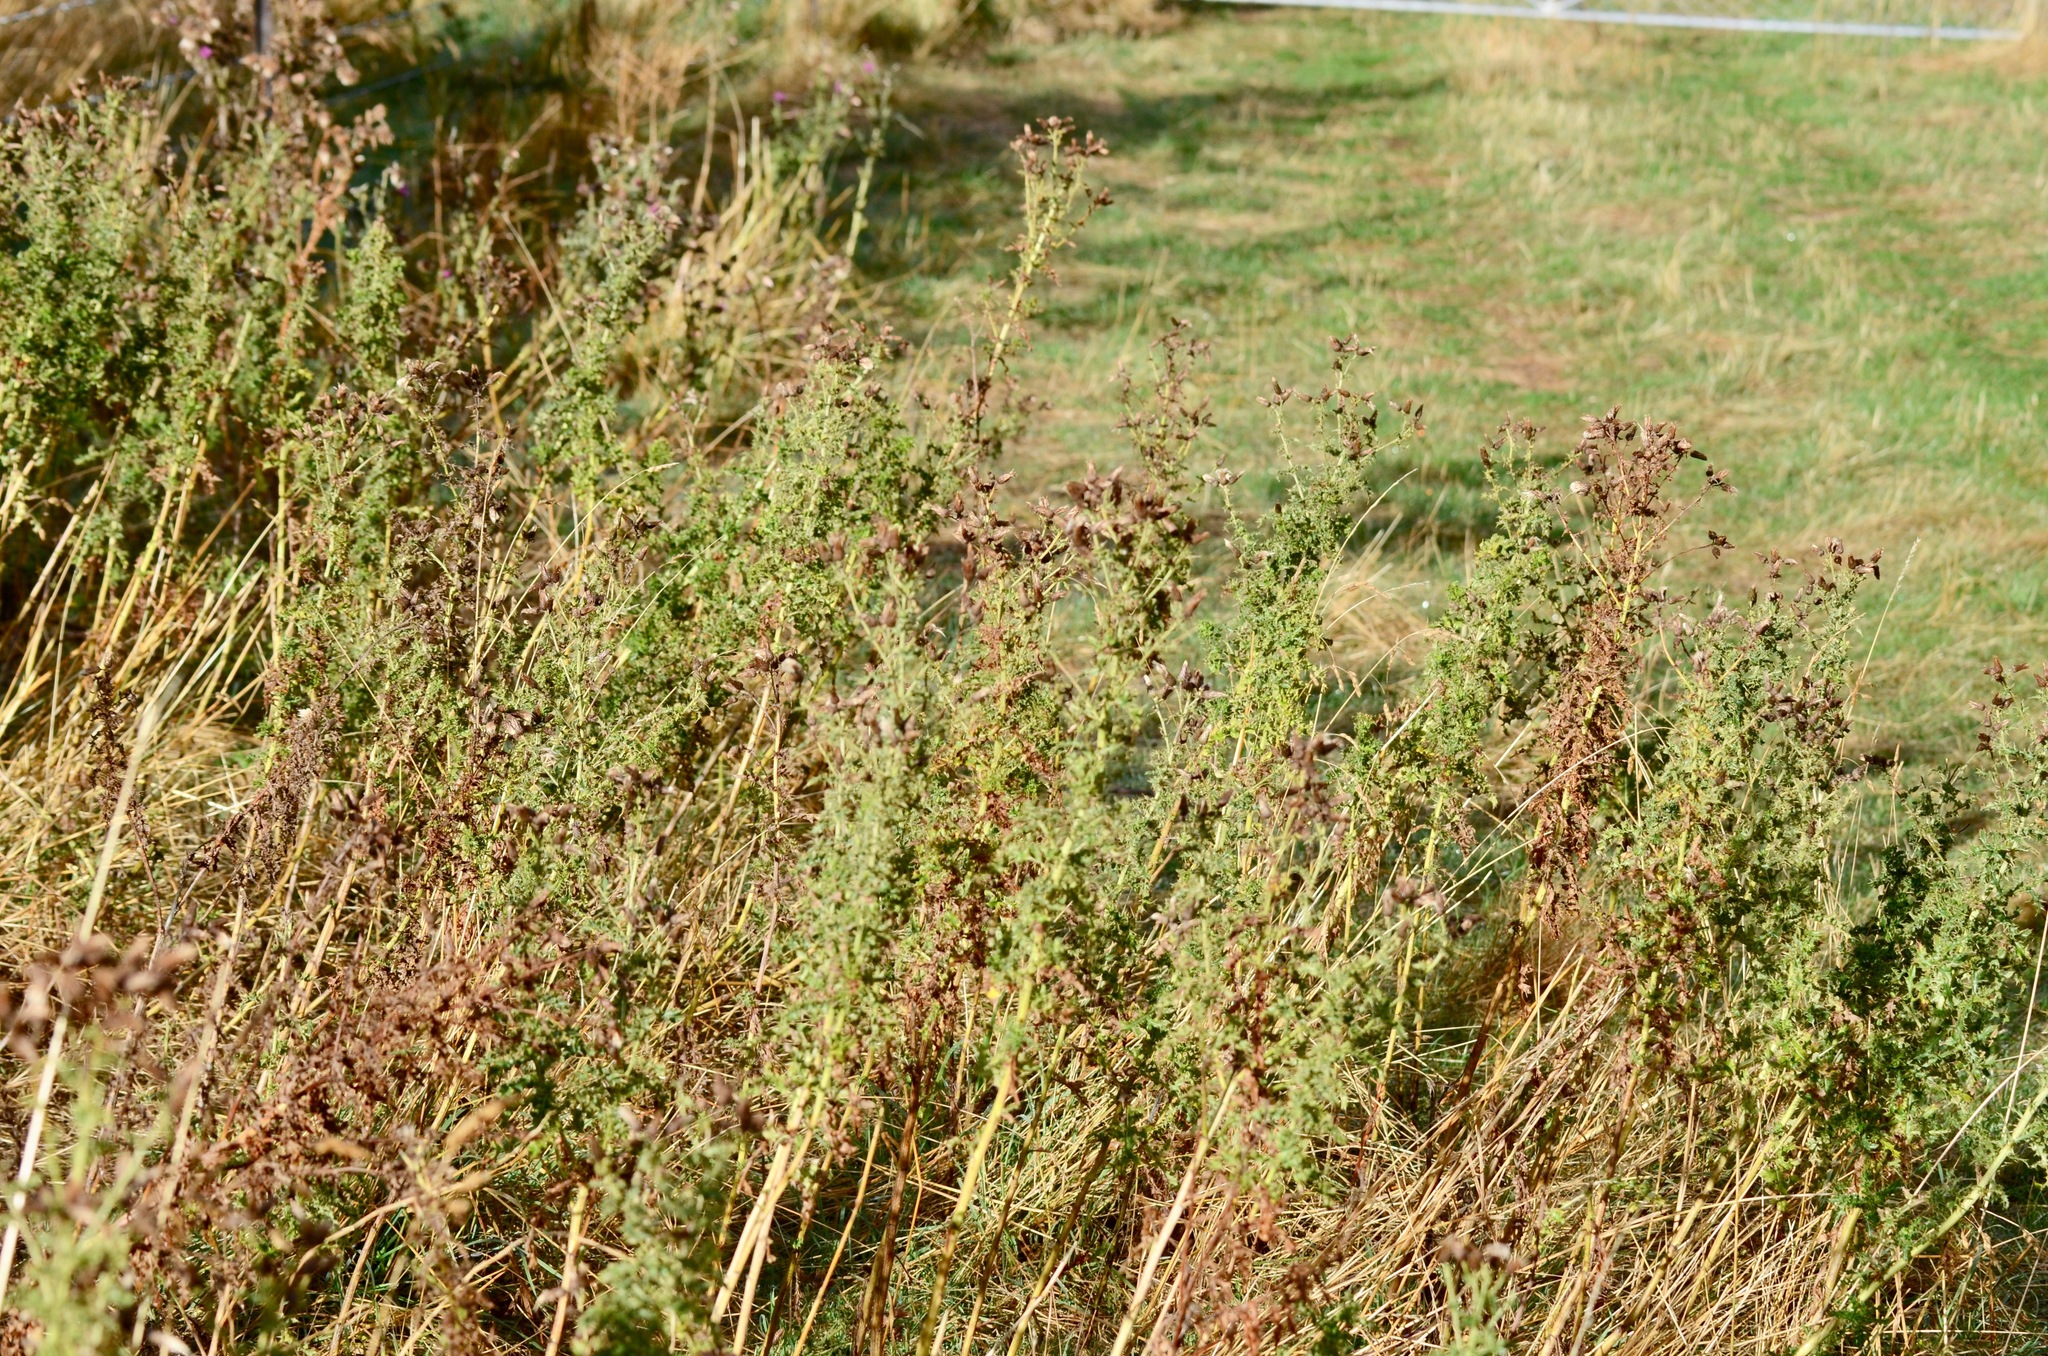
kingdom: Plantae
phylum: Tracheophyta
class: Magnoliopsida
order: Asterales
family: Asteraceae
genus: Cirsium
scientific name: Cirsium arvense
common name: Creeping thistle
